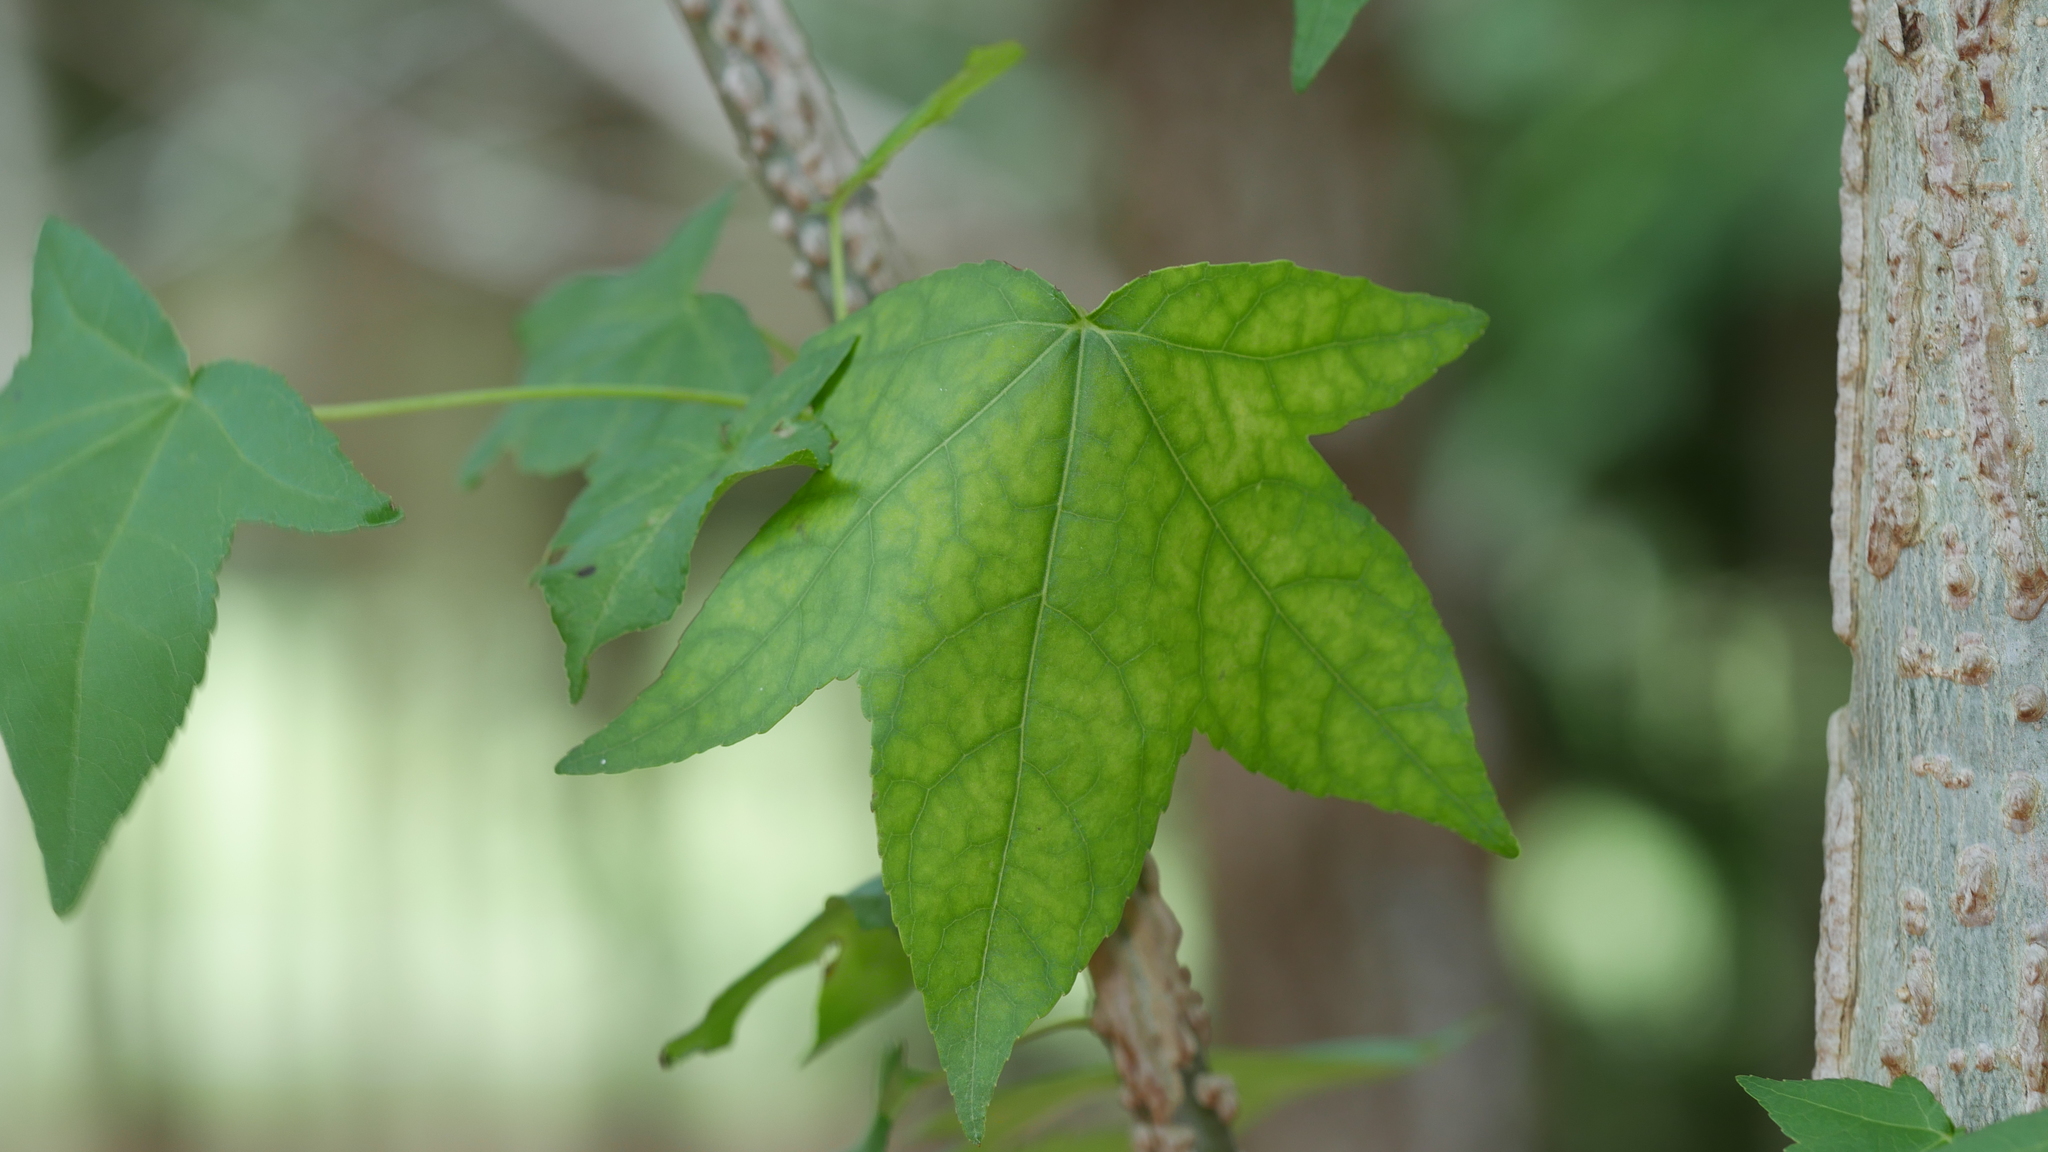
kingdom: Plantae
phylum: Tracheophyta
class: Magnoliopsida
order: Saxifragales
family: Altingiaceae
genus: Liquidambar
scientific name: Liquidambar styraciflua
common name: Sweet gum
